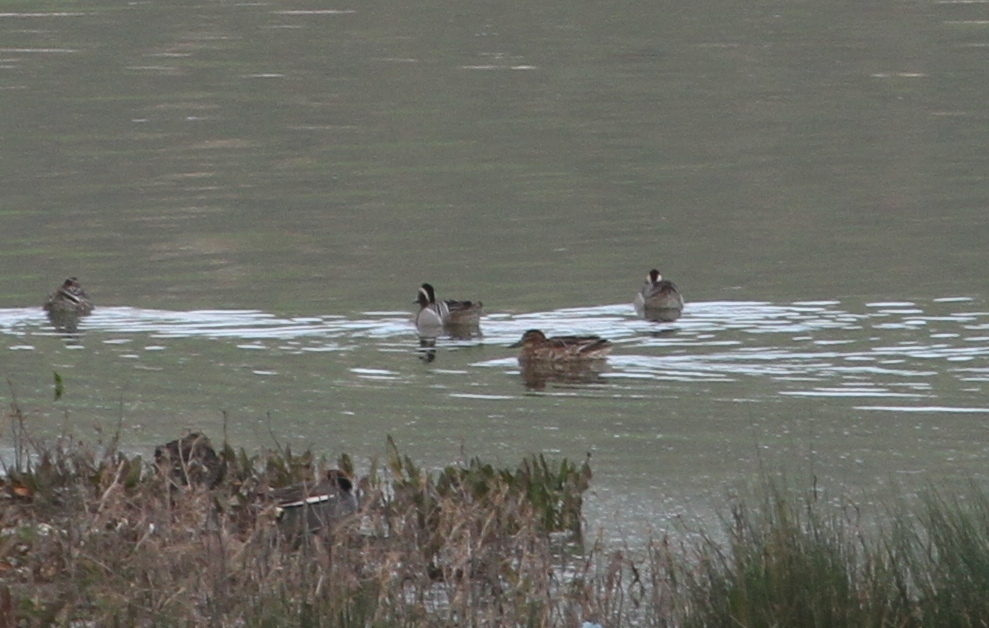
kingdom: Animalia
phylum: Chordata
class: Aves
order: Anseriformes
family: Anatidae
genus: Spatula
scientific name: Spatula querquedula
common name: Garganey
